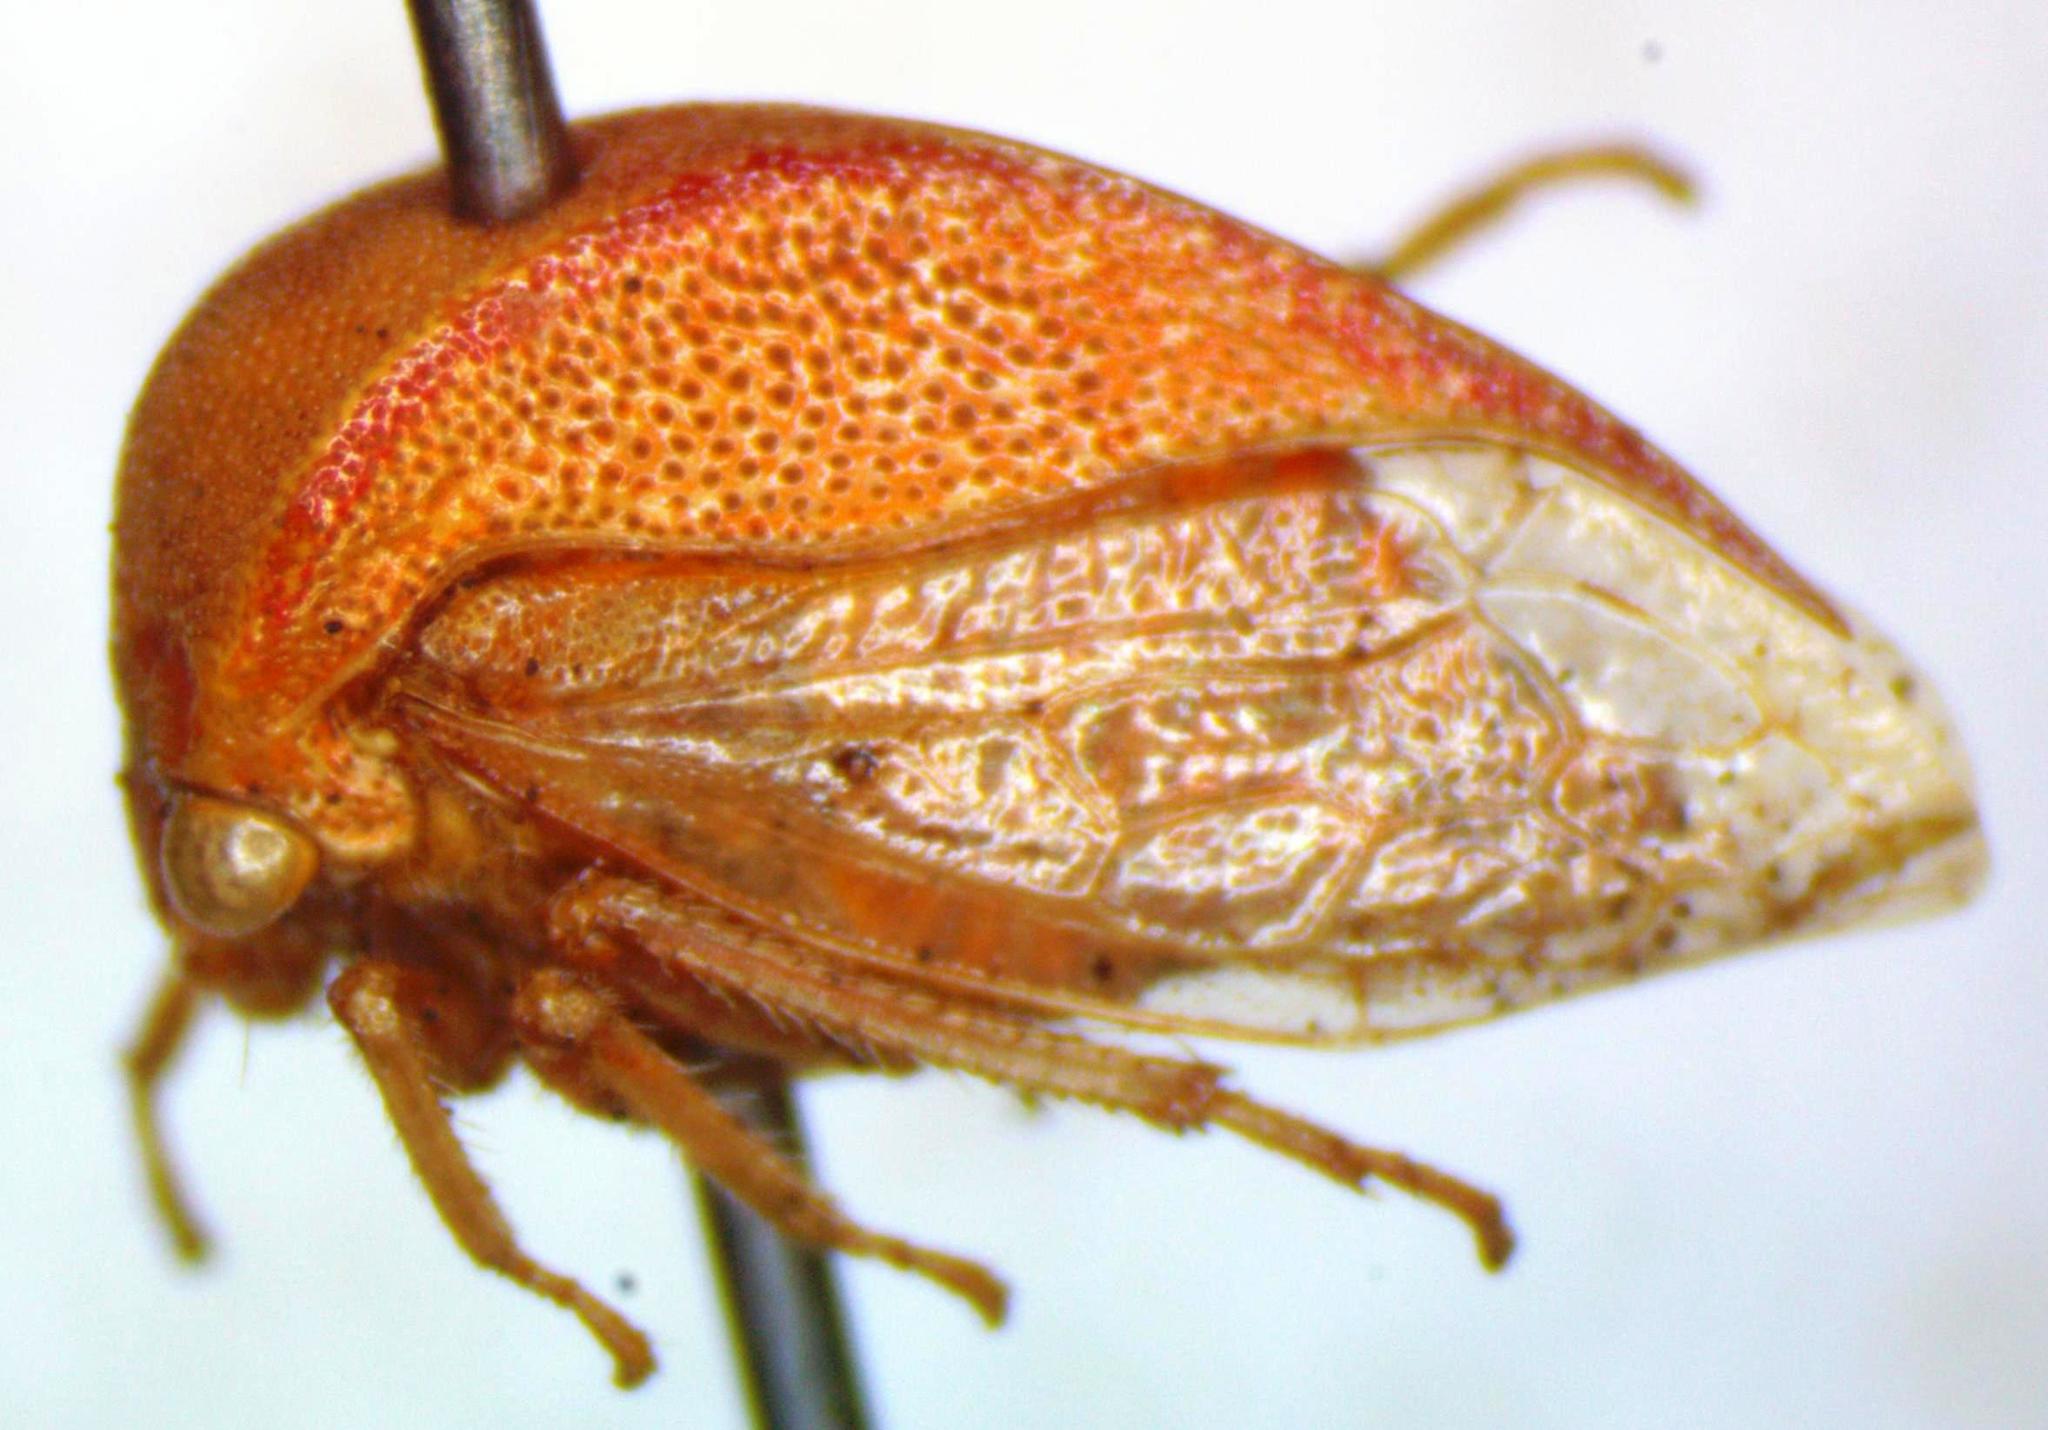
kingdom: Animalia
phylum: Arthropoda
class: Insecta
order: Hemiptera
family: Membracidae
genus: Spissistilus
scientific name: Spissistilus festina
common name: Membracid bug
